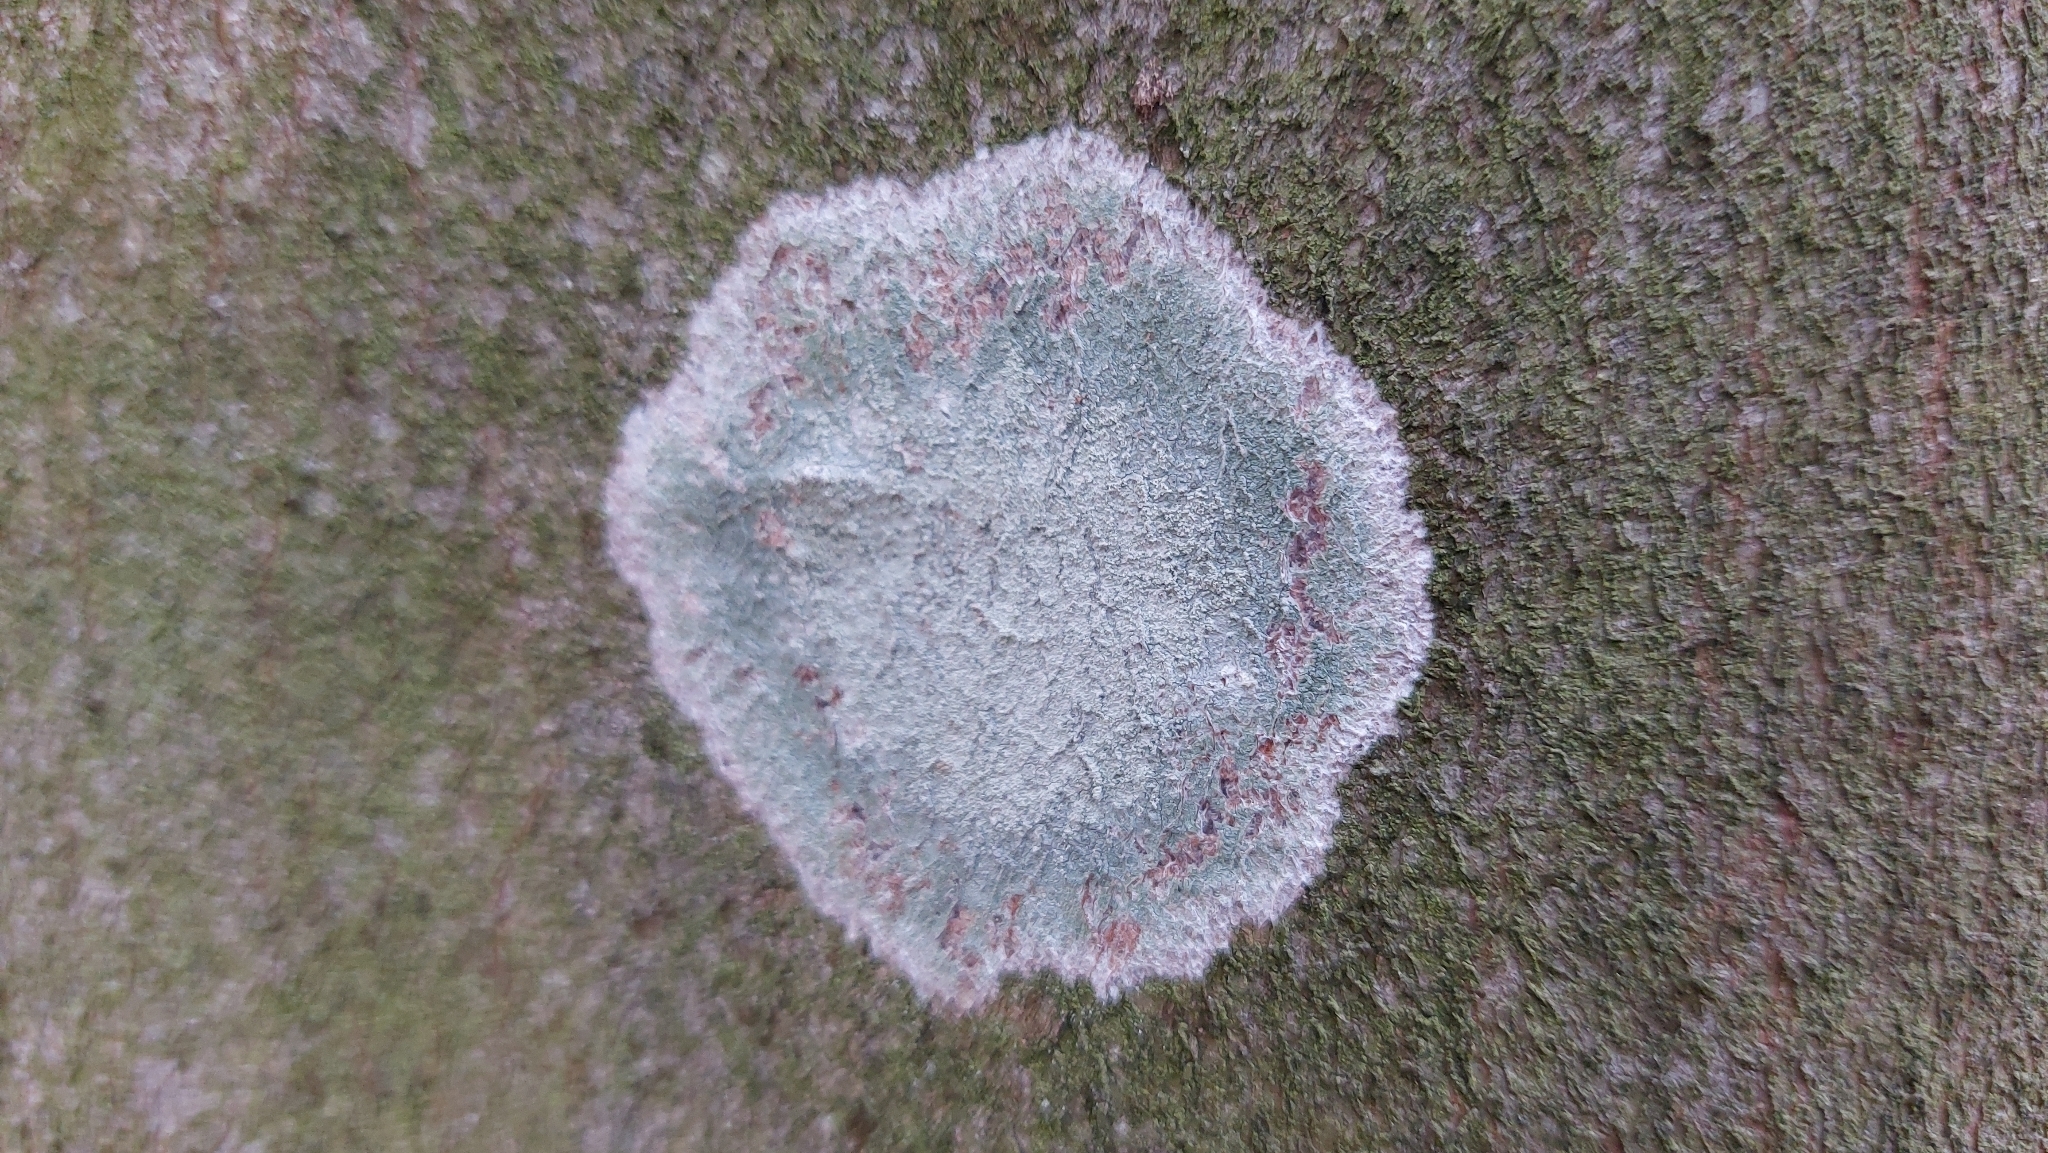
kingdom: Fungi
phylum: Ascomycota
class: Lecanoromycetes
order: Ostropales
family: Phlyctidaceae
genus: Phlyctis
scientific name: Phlyctis argena
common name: Whitewash lichen
